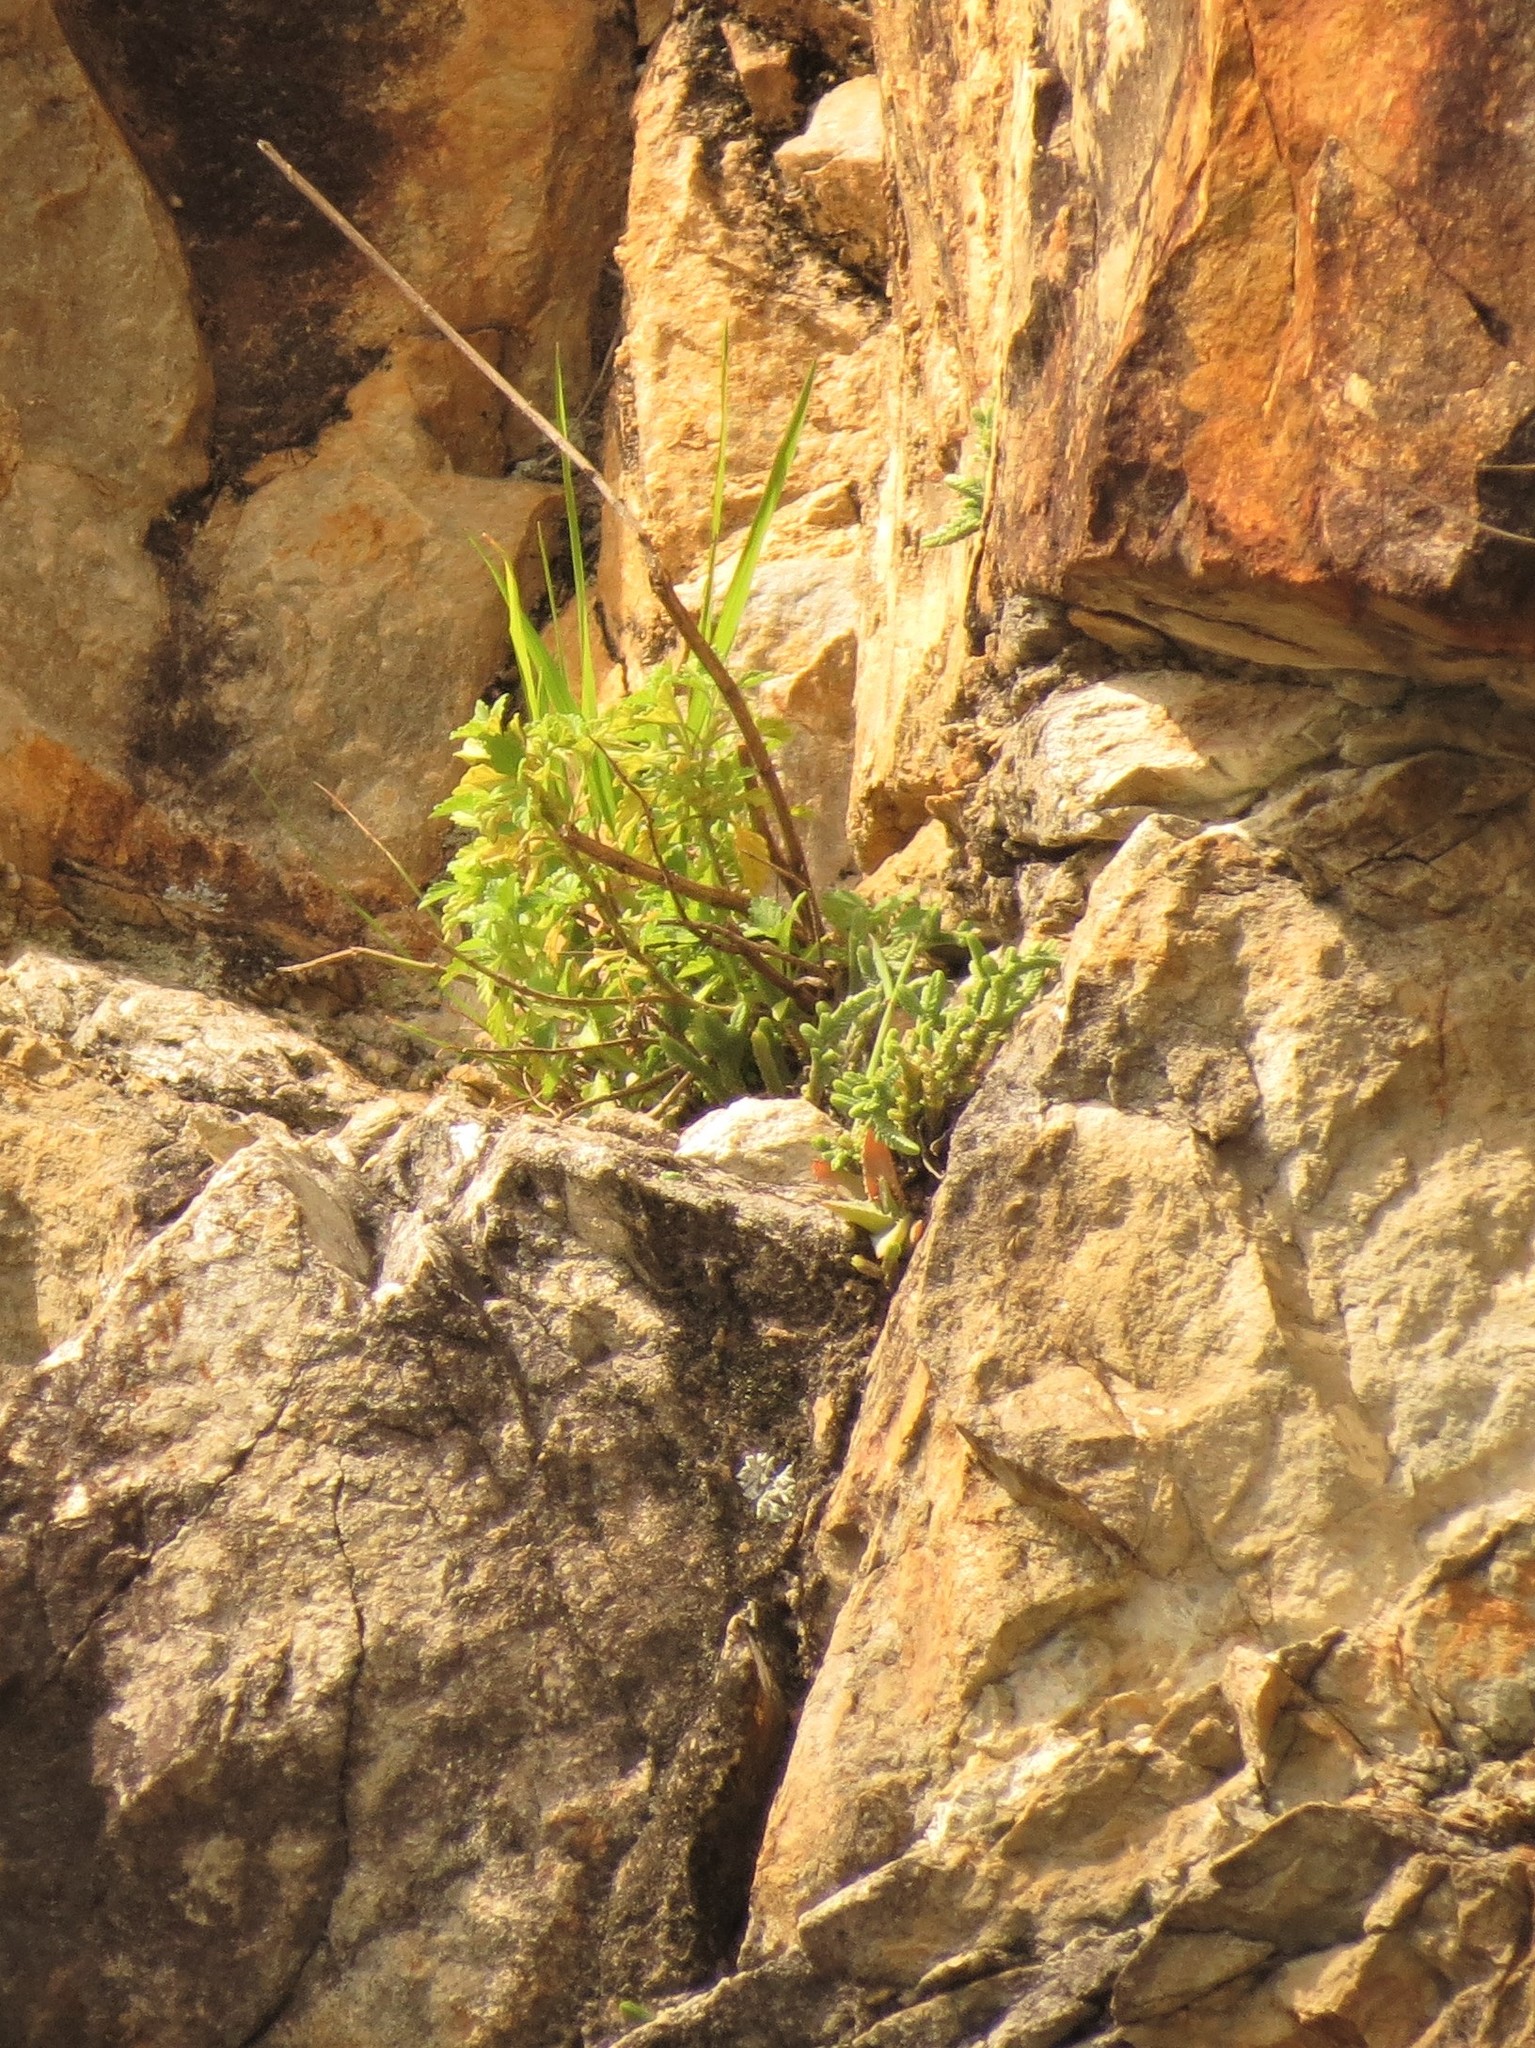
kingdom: Plantae
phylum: Tracheophyta
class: Magnoliopsida
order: Saxifragales
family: Crassulaceae
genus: Crassula
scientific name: Crassula muscosa
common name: Toy-cypress
